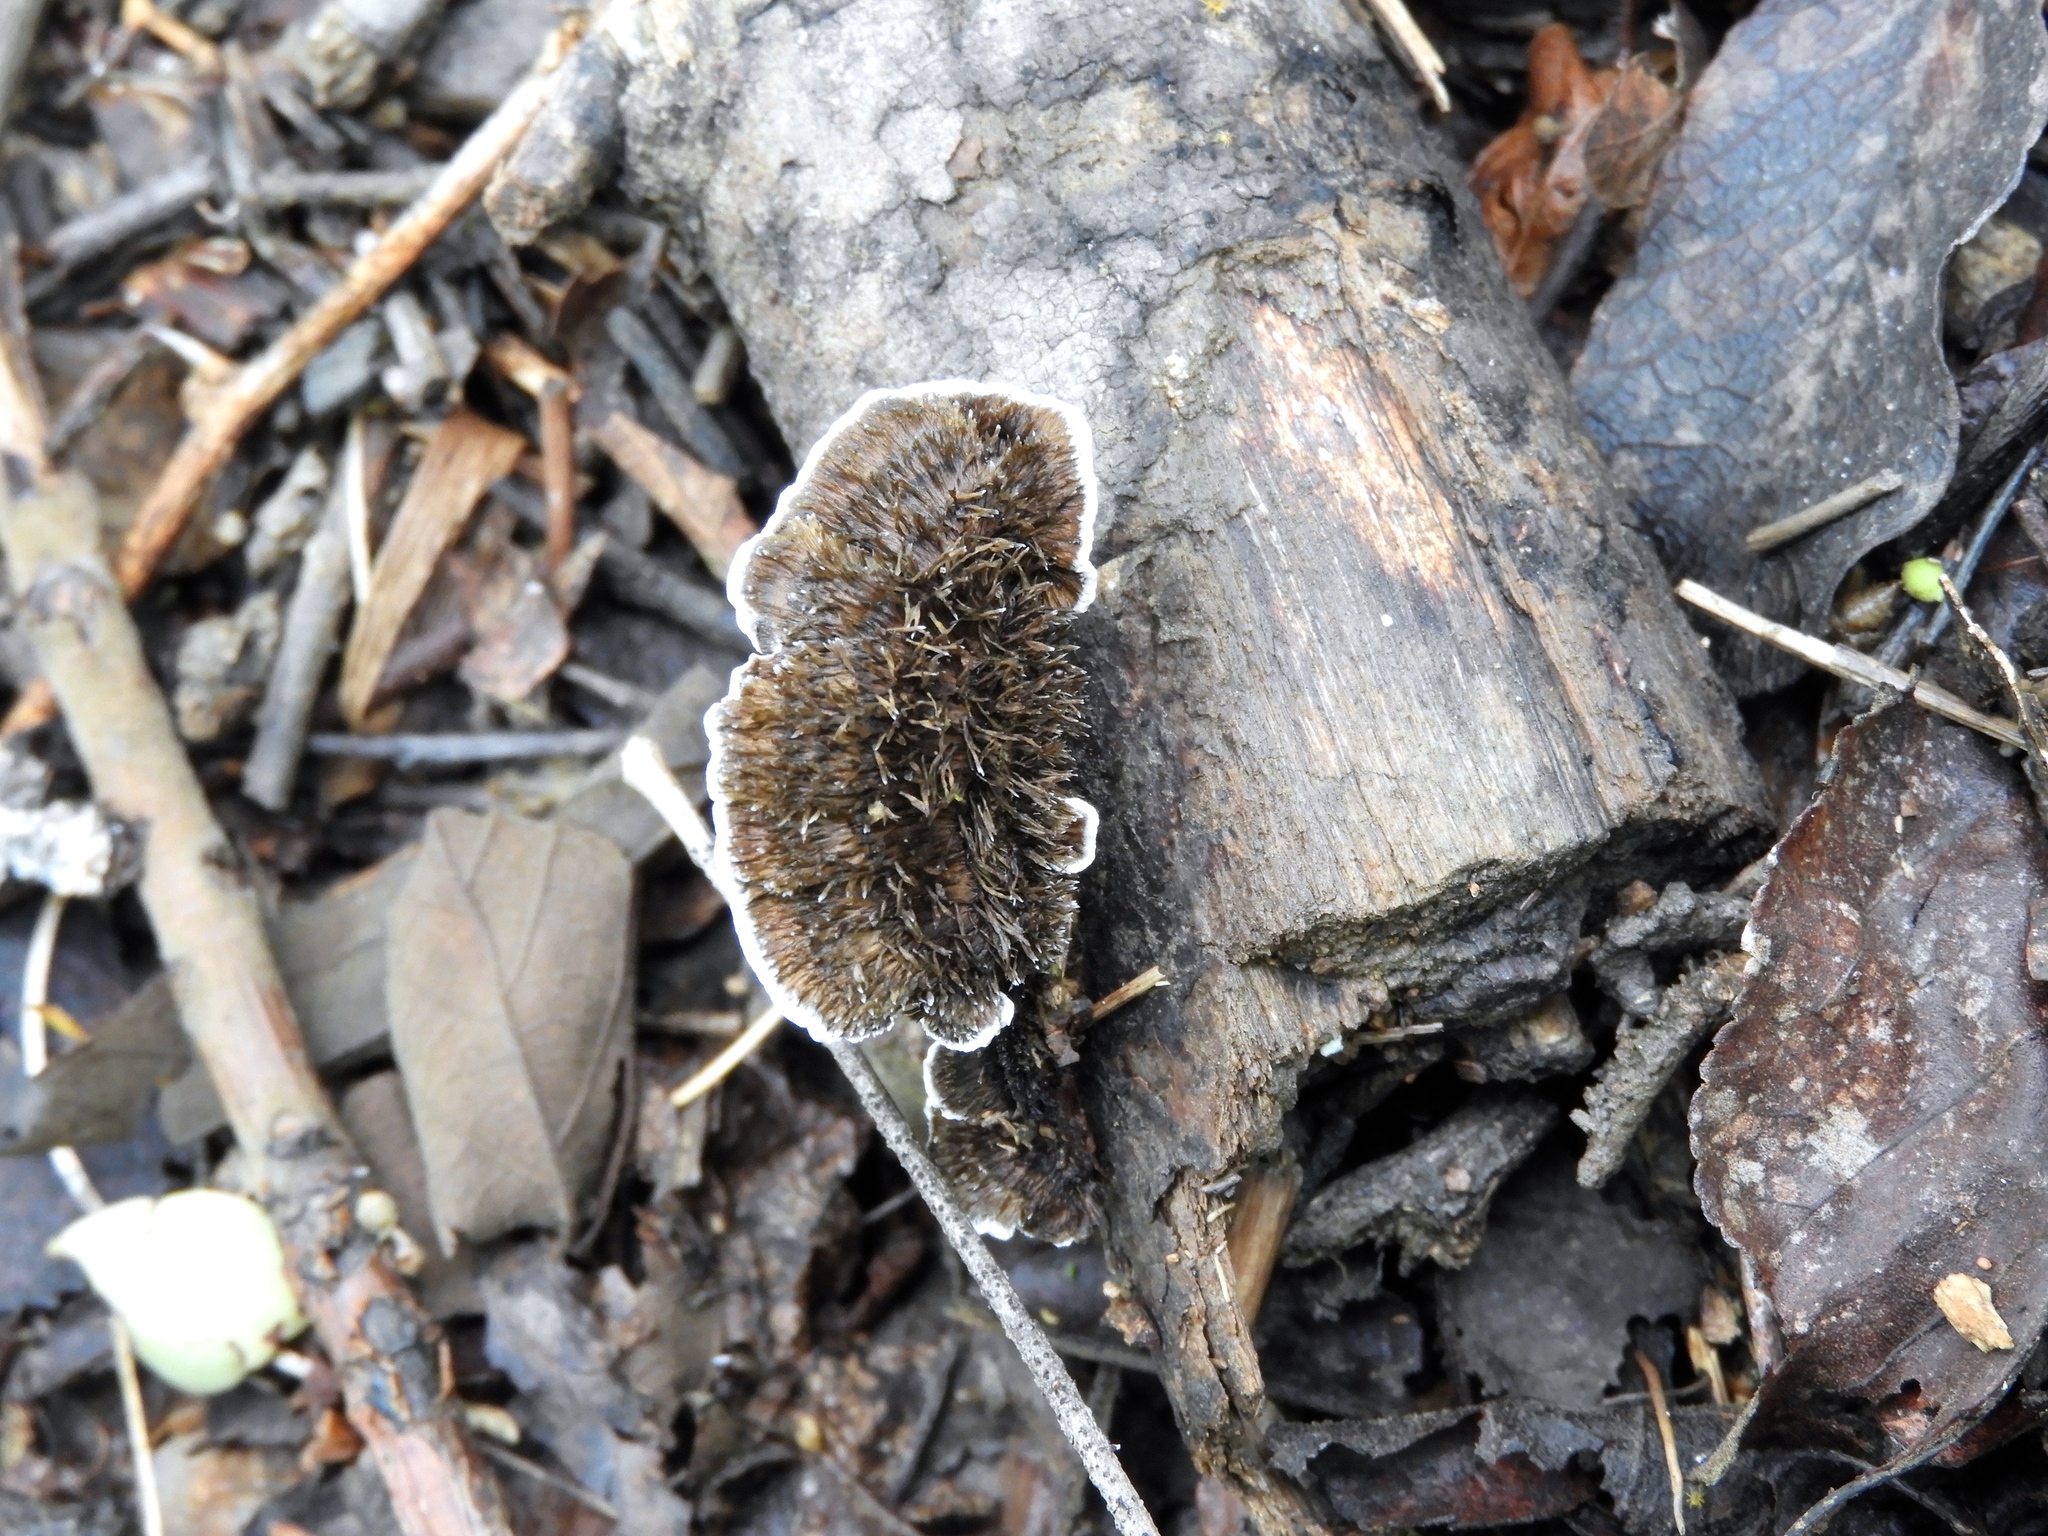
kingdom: Fungi
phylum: Basidiomycota
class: Agaricomycetes
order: Polyporales
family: Cerrenaceae
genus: Cerrena
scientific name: Cerrena hydnoides
